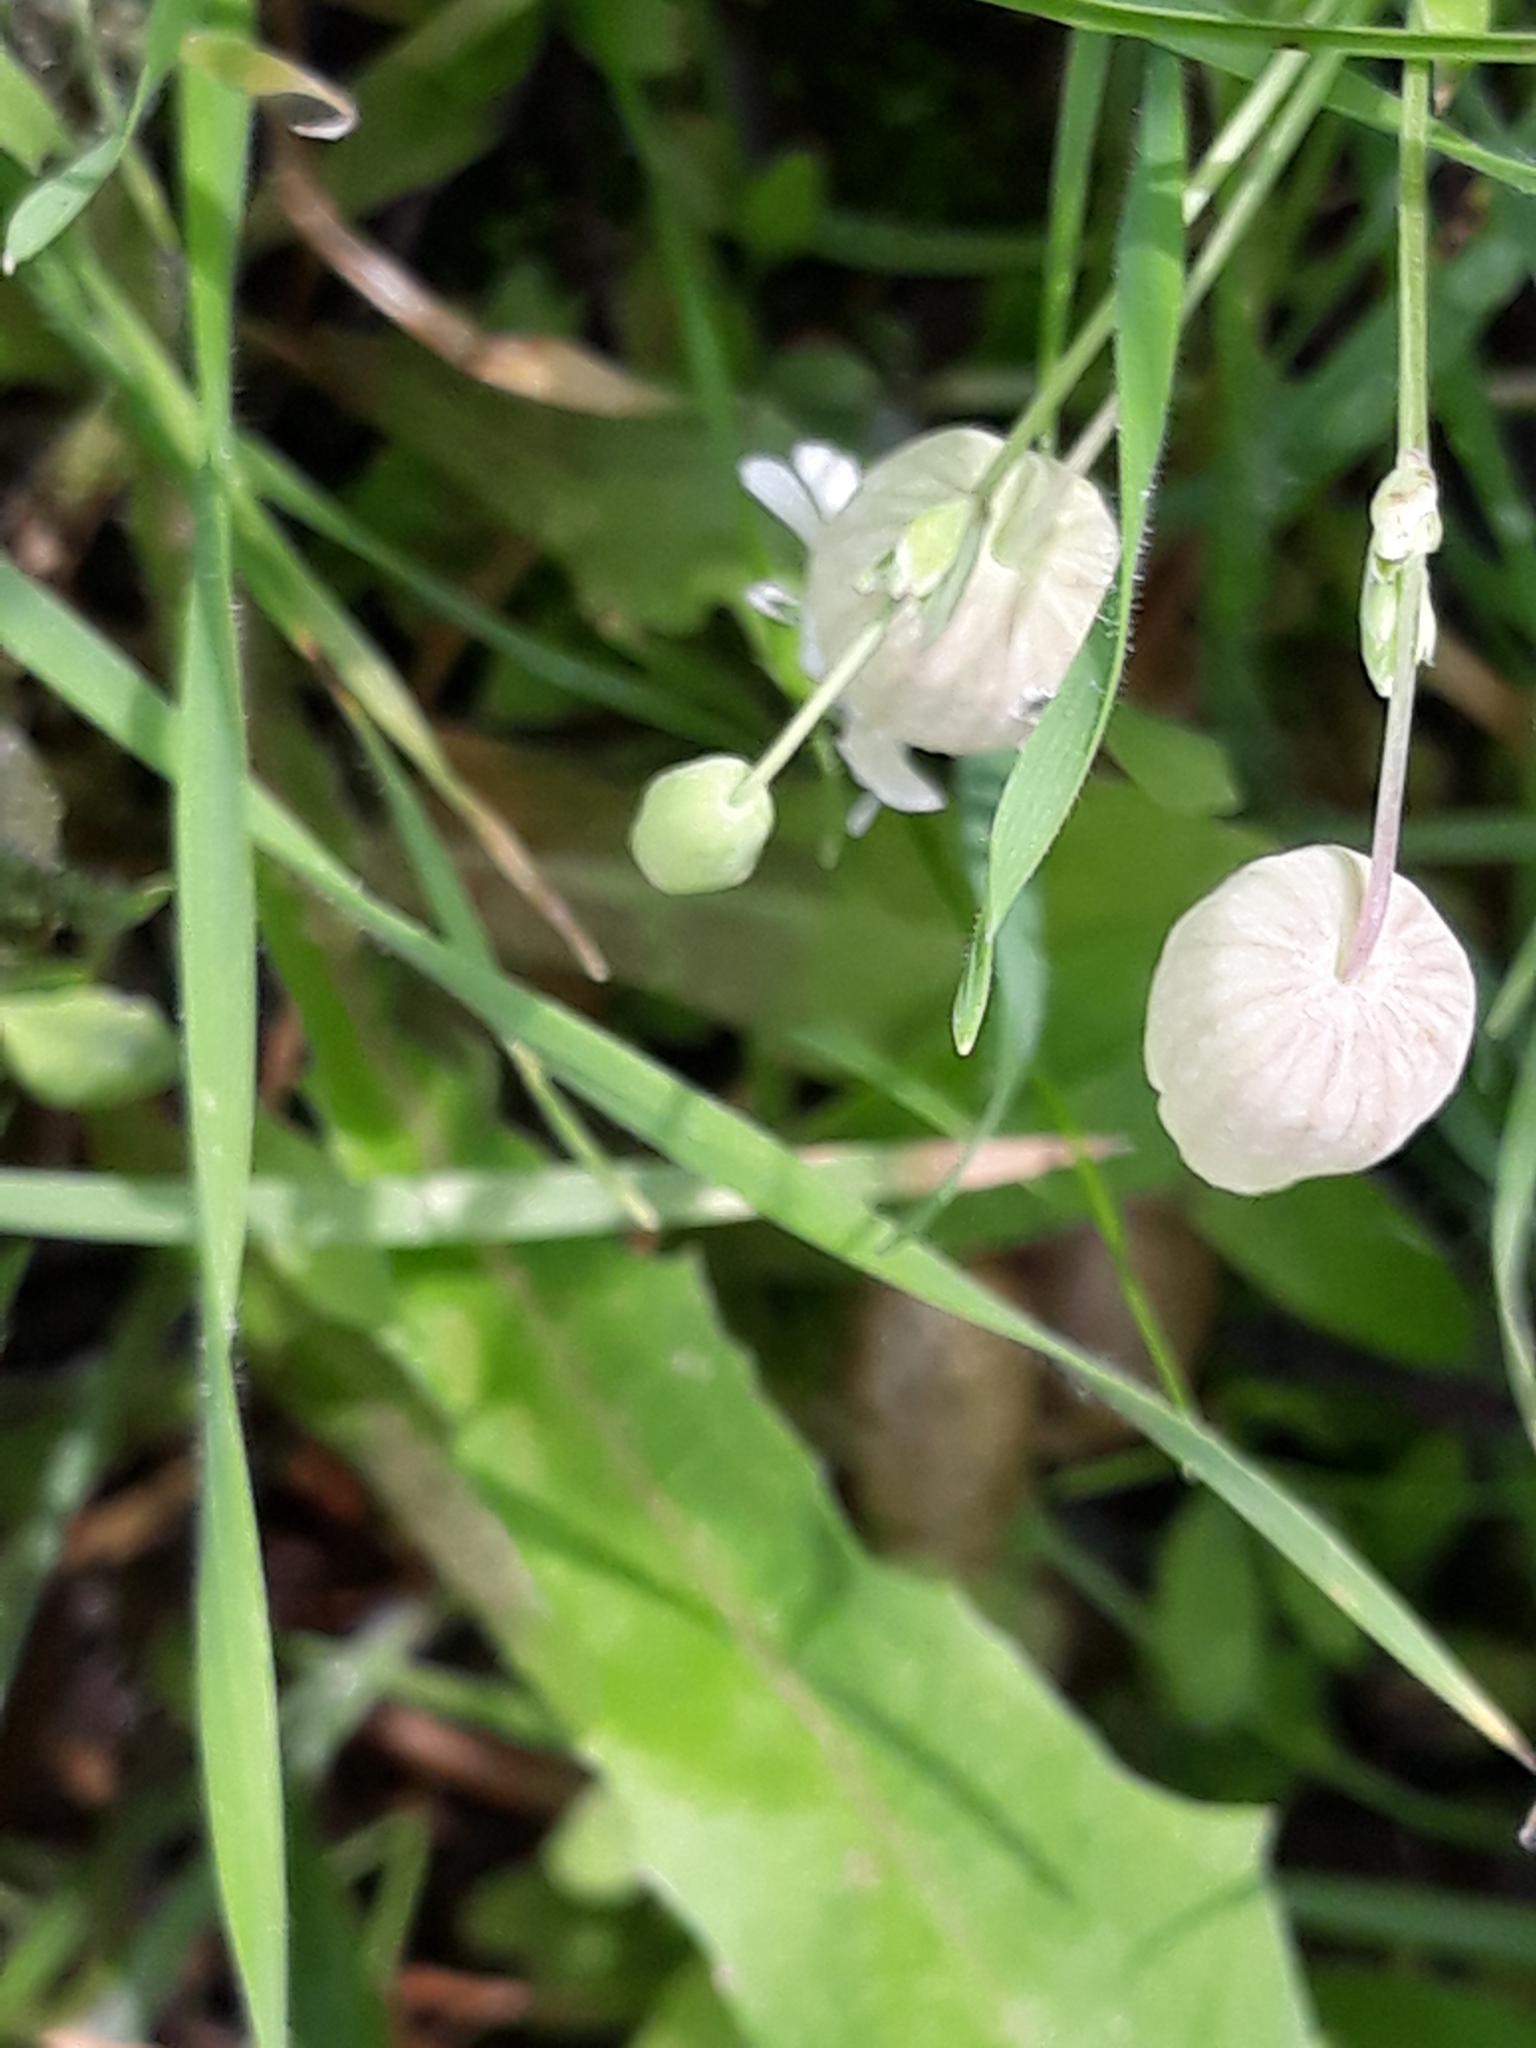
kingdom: Plantae
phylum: Tracheophyta
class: Magnoliopsida
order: Caryophyllales
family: Caryophyllaceae
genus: Silene
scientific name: Silene vulgaris
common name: Bladder campion
